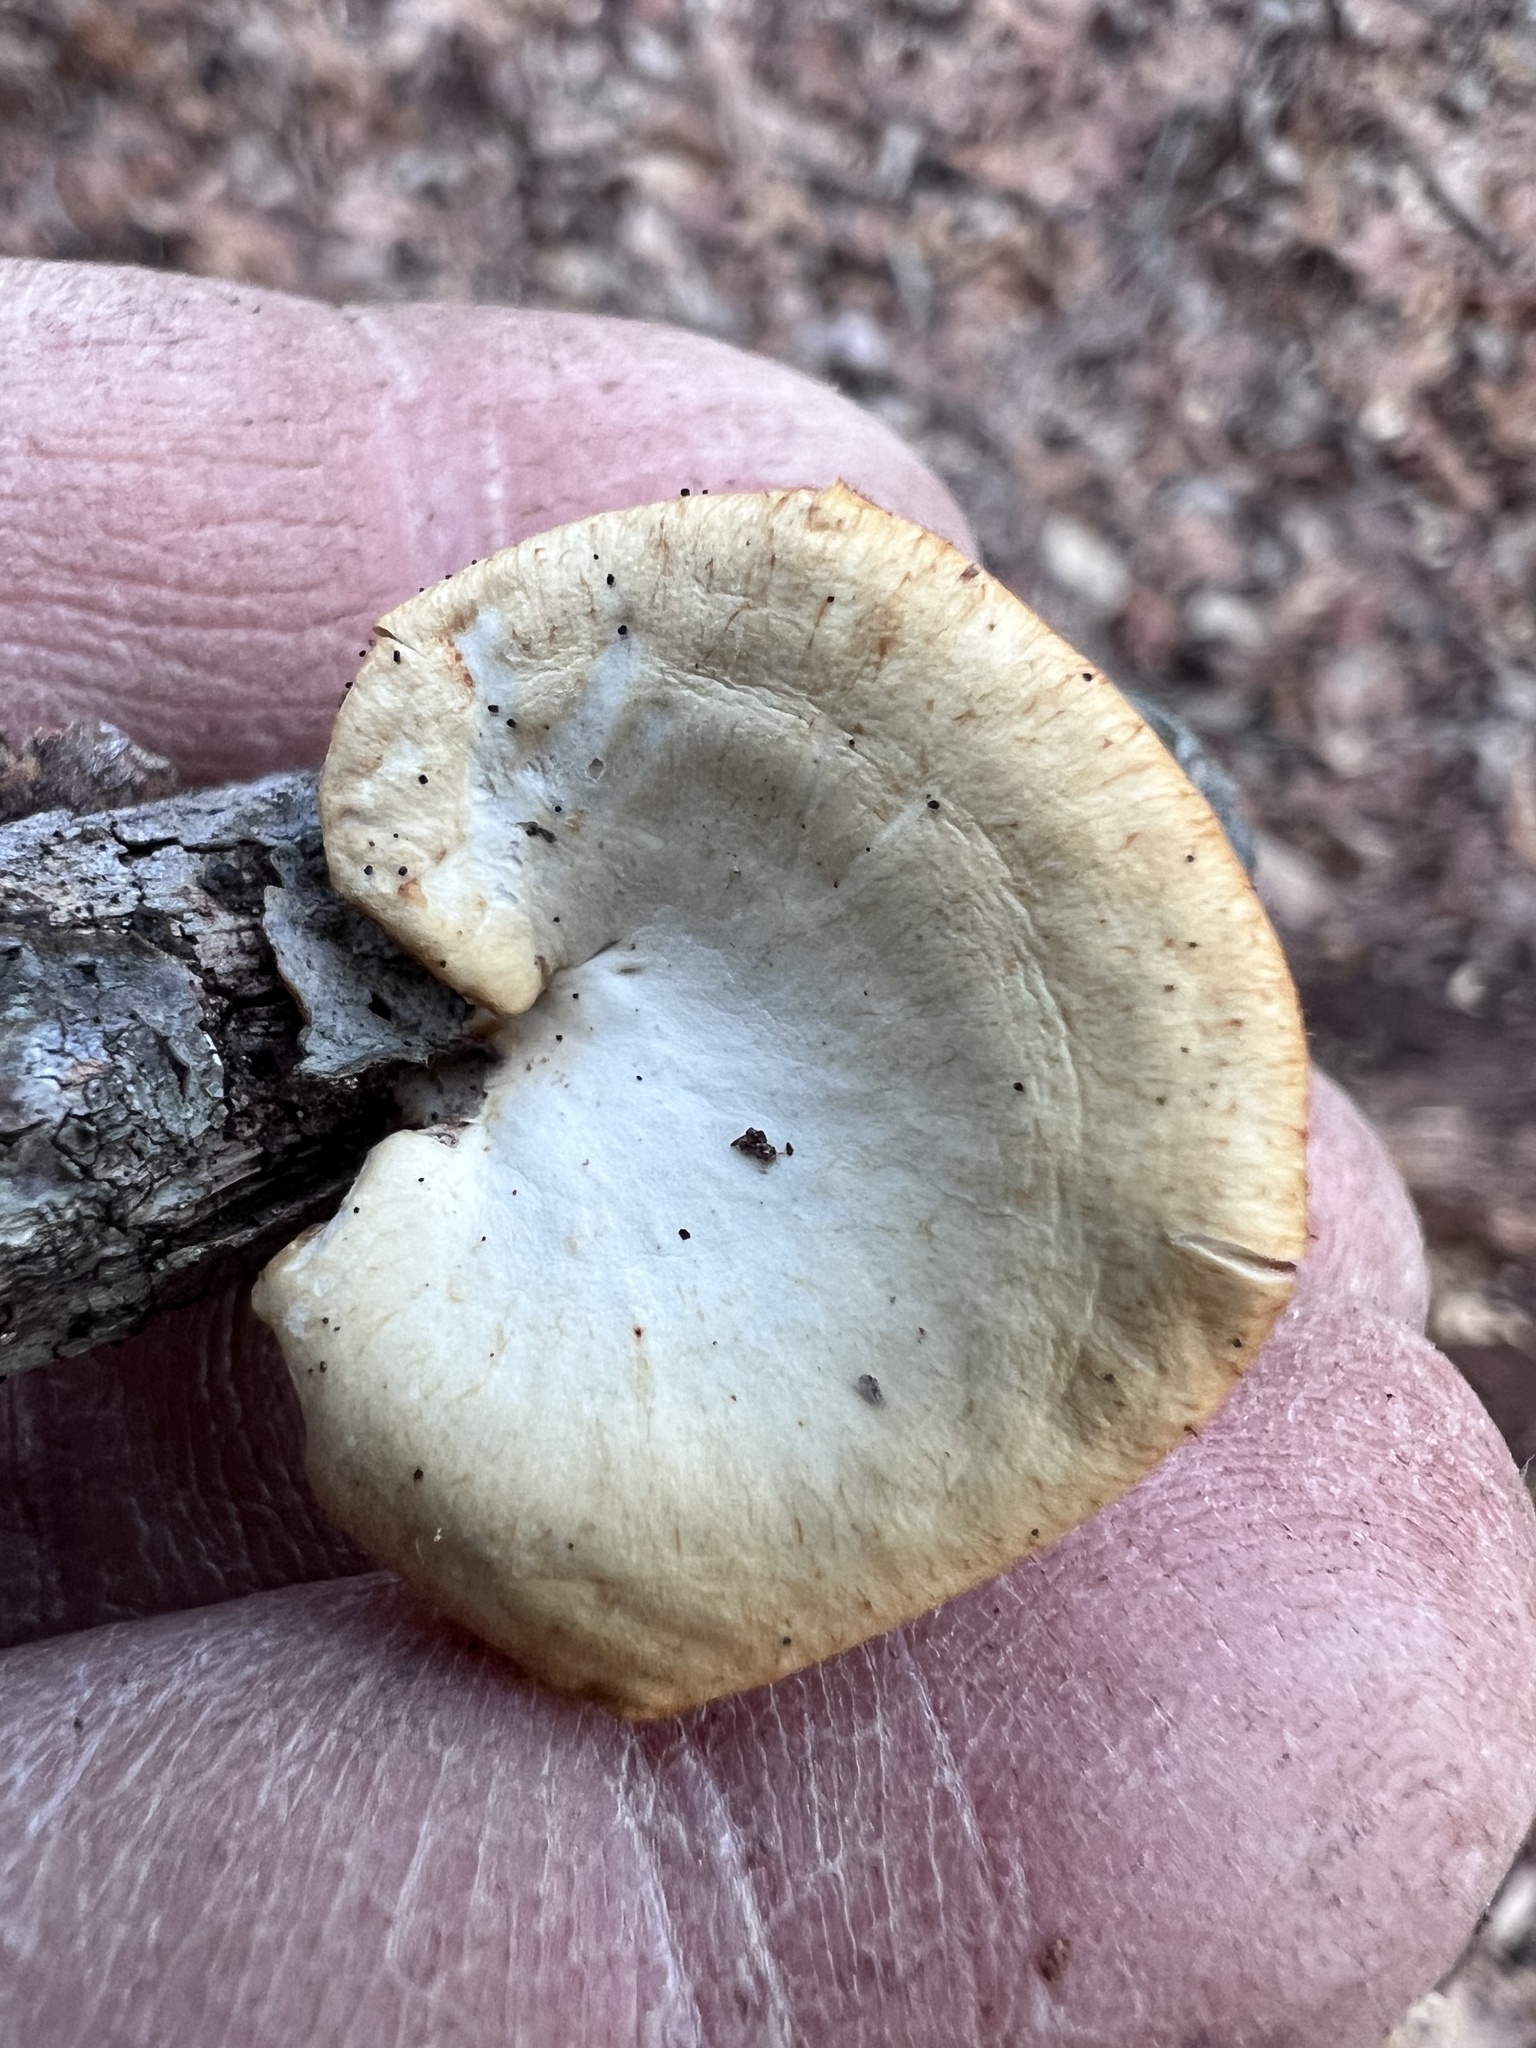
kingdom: Fungi
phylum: Basidiomycota
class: Agaricomycetes
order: Polyporales
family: Polyporaceae
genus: Neofavolus
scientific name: Neofavolus alveolaris
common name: Hexagonal-pored polypore
